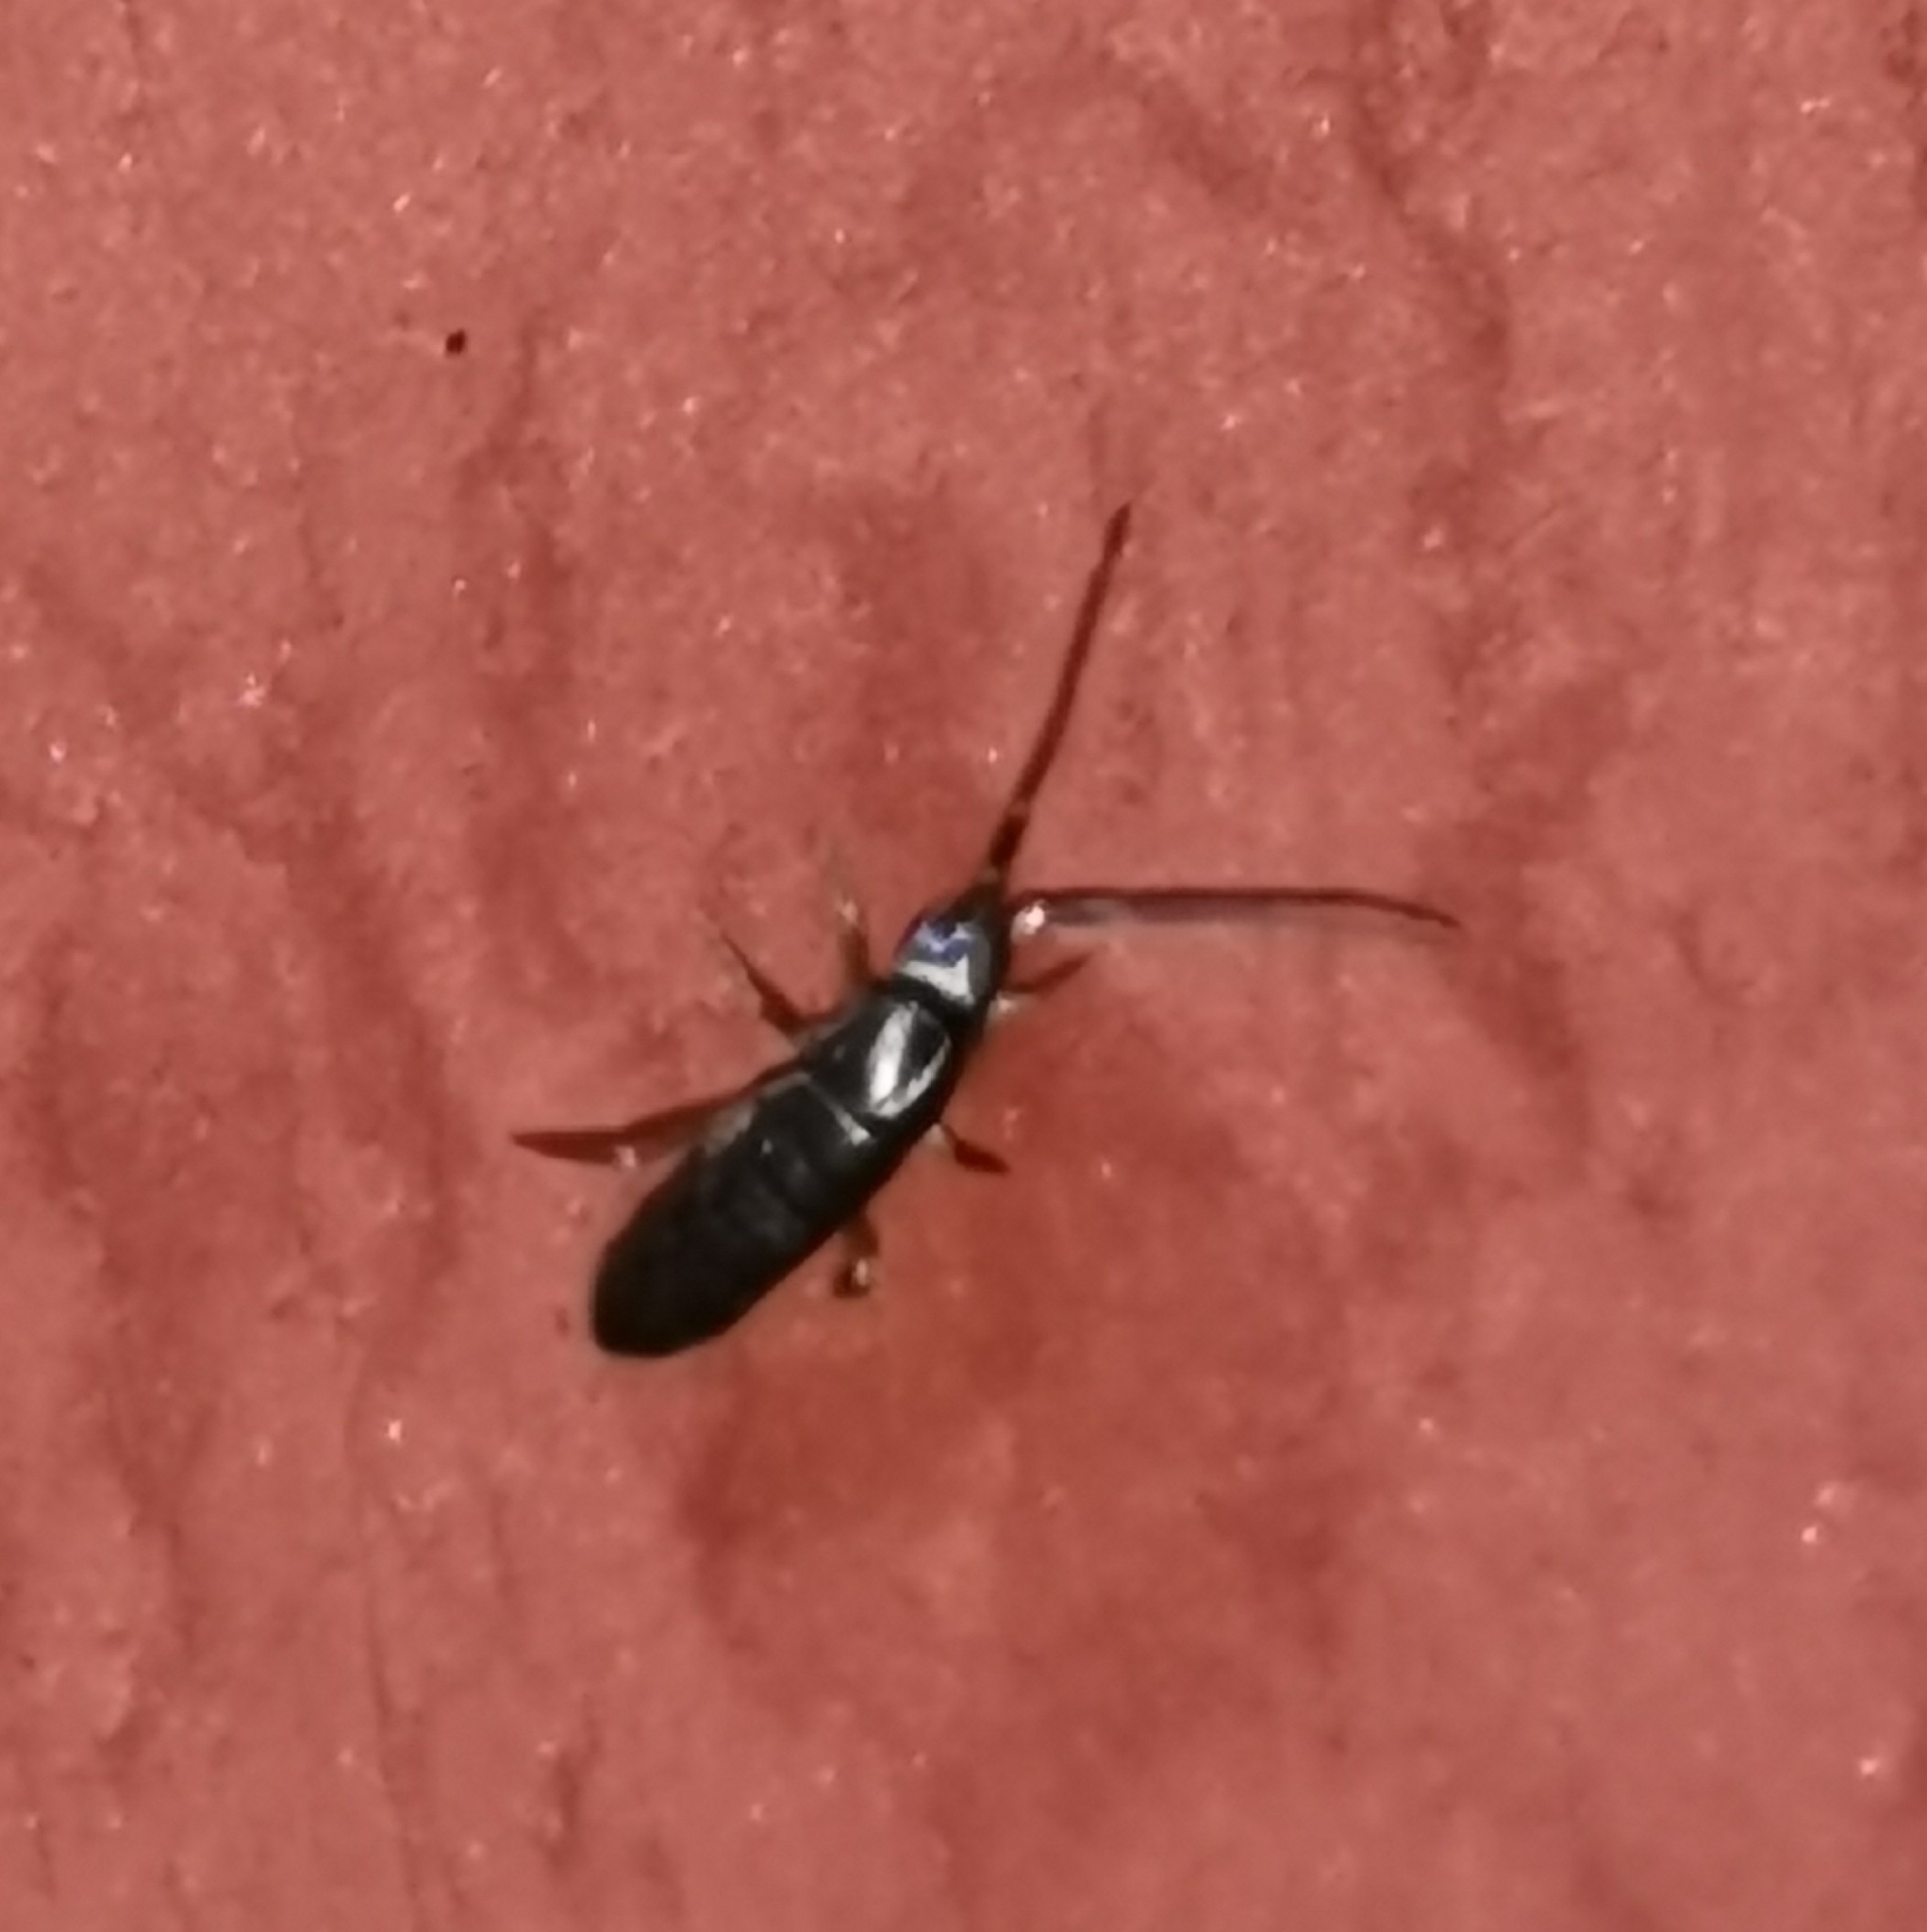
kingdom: Animalia
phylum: Arthropoda
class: Collembola
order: Entomobryomorpha
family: Tomoceridae
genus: Tomocerus
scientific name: Tomocerus vulgaris
